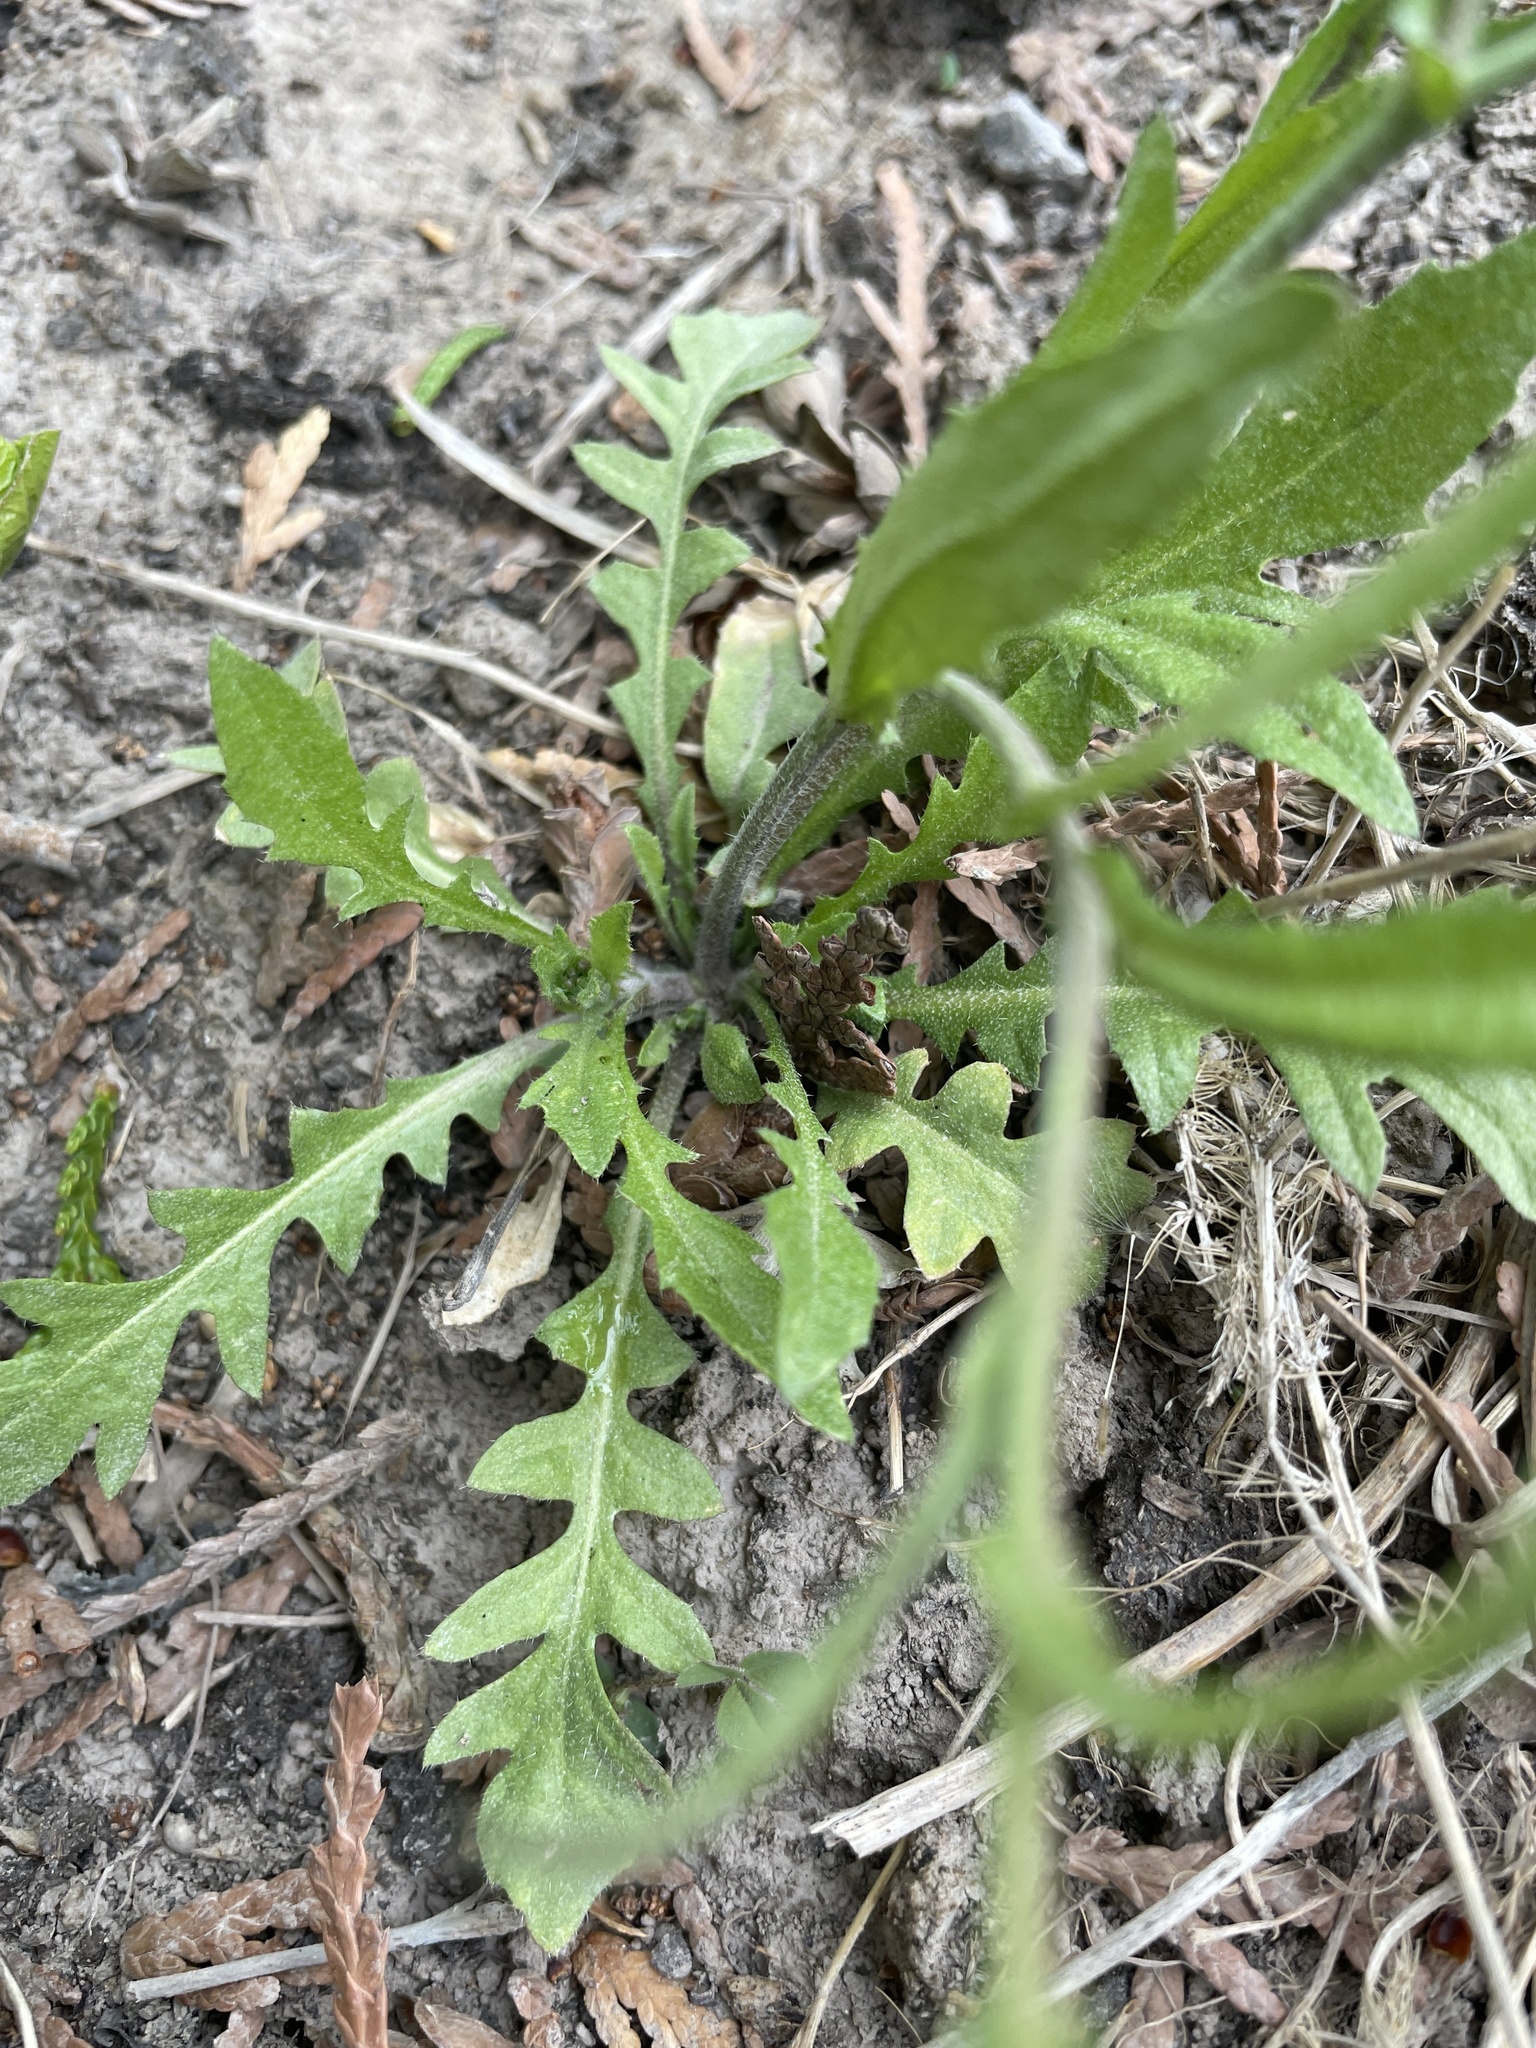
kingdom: Plantae
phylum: Tracheophyta
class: Magnoliopsida
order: Brassicales
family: Brassicaceae
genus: Capsella
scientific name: Capsella bursa-pastoris
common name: Shepherd's purse
